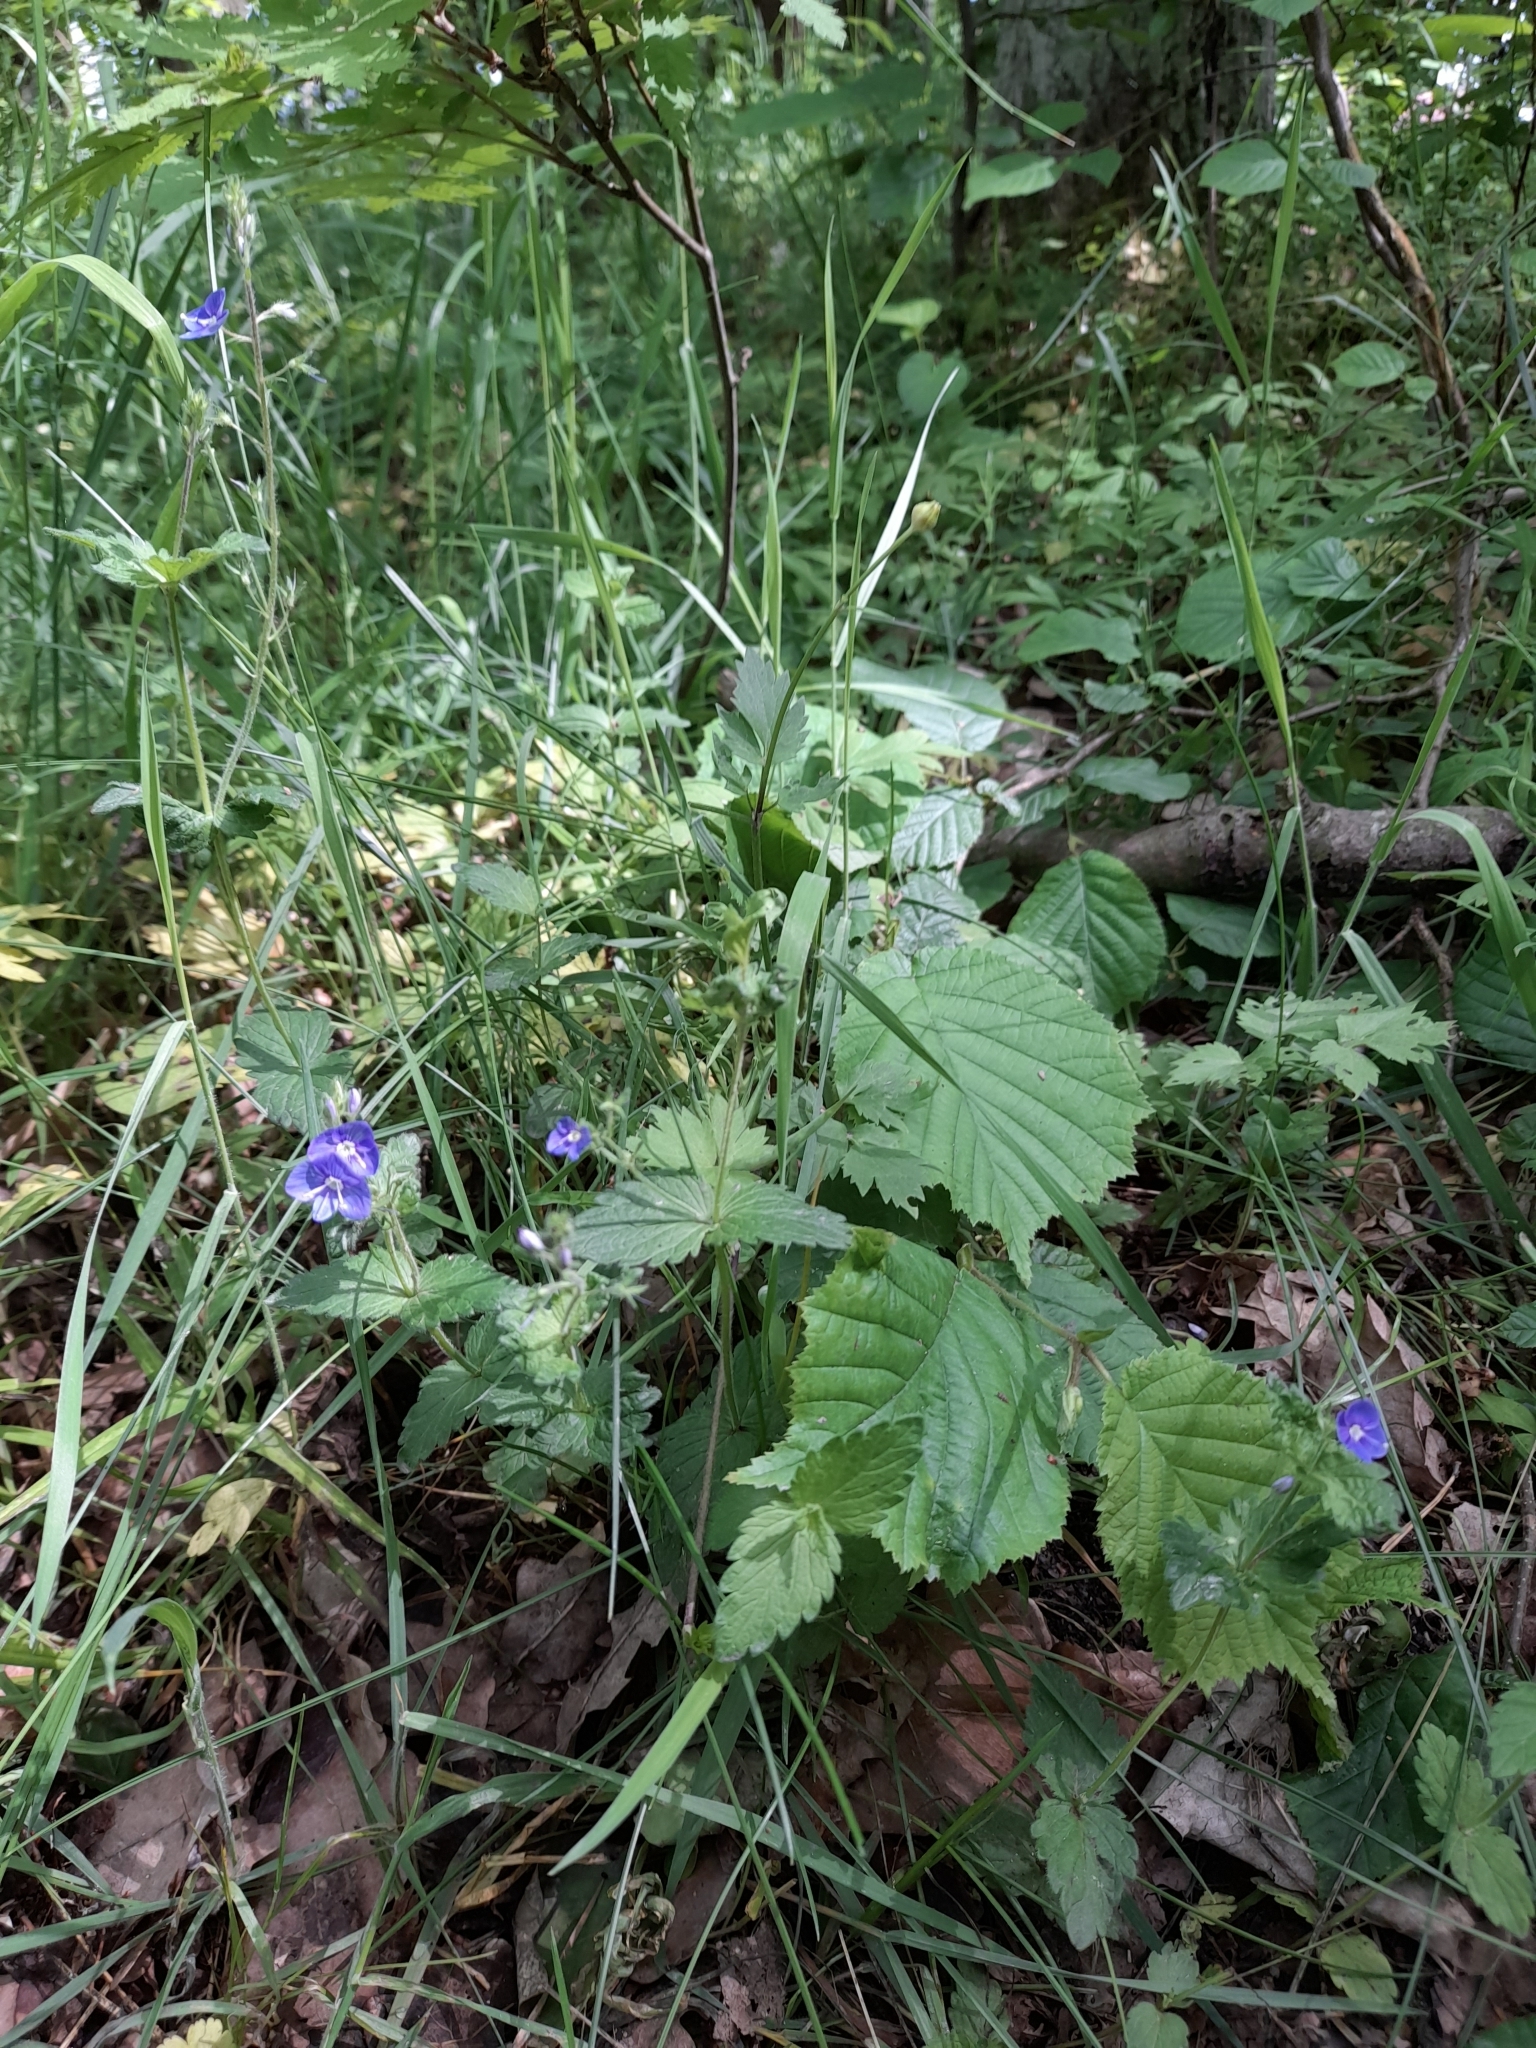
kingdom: Plantae
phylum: Tracheophyta
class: Magnoliopsida
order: Lamiales
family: Plantaginaceae
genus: Veronica
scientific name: Veronica chamaedrys
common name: Germander speedwell
